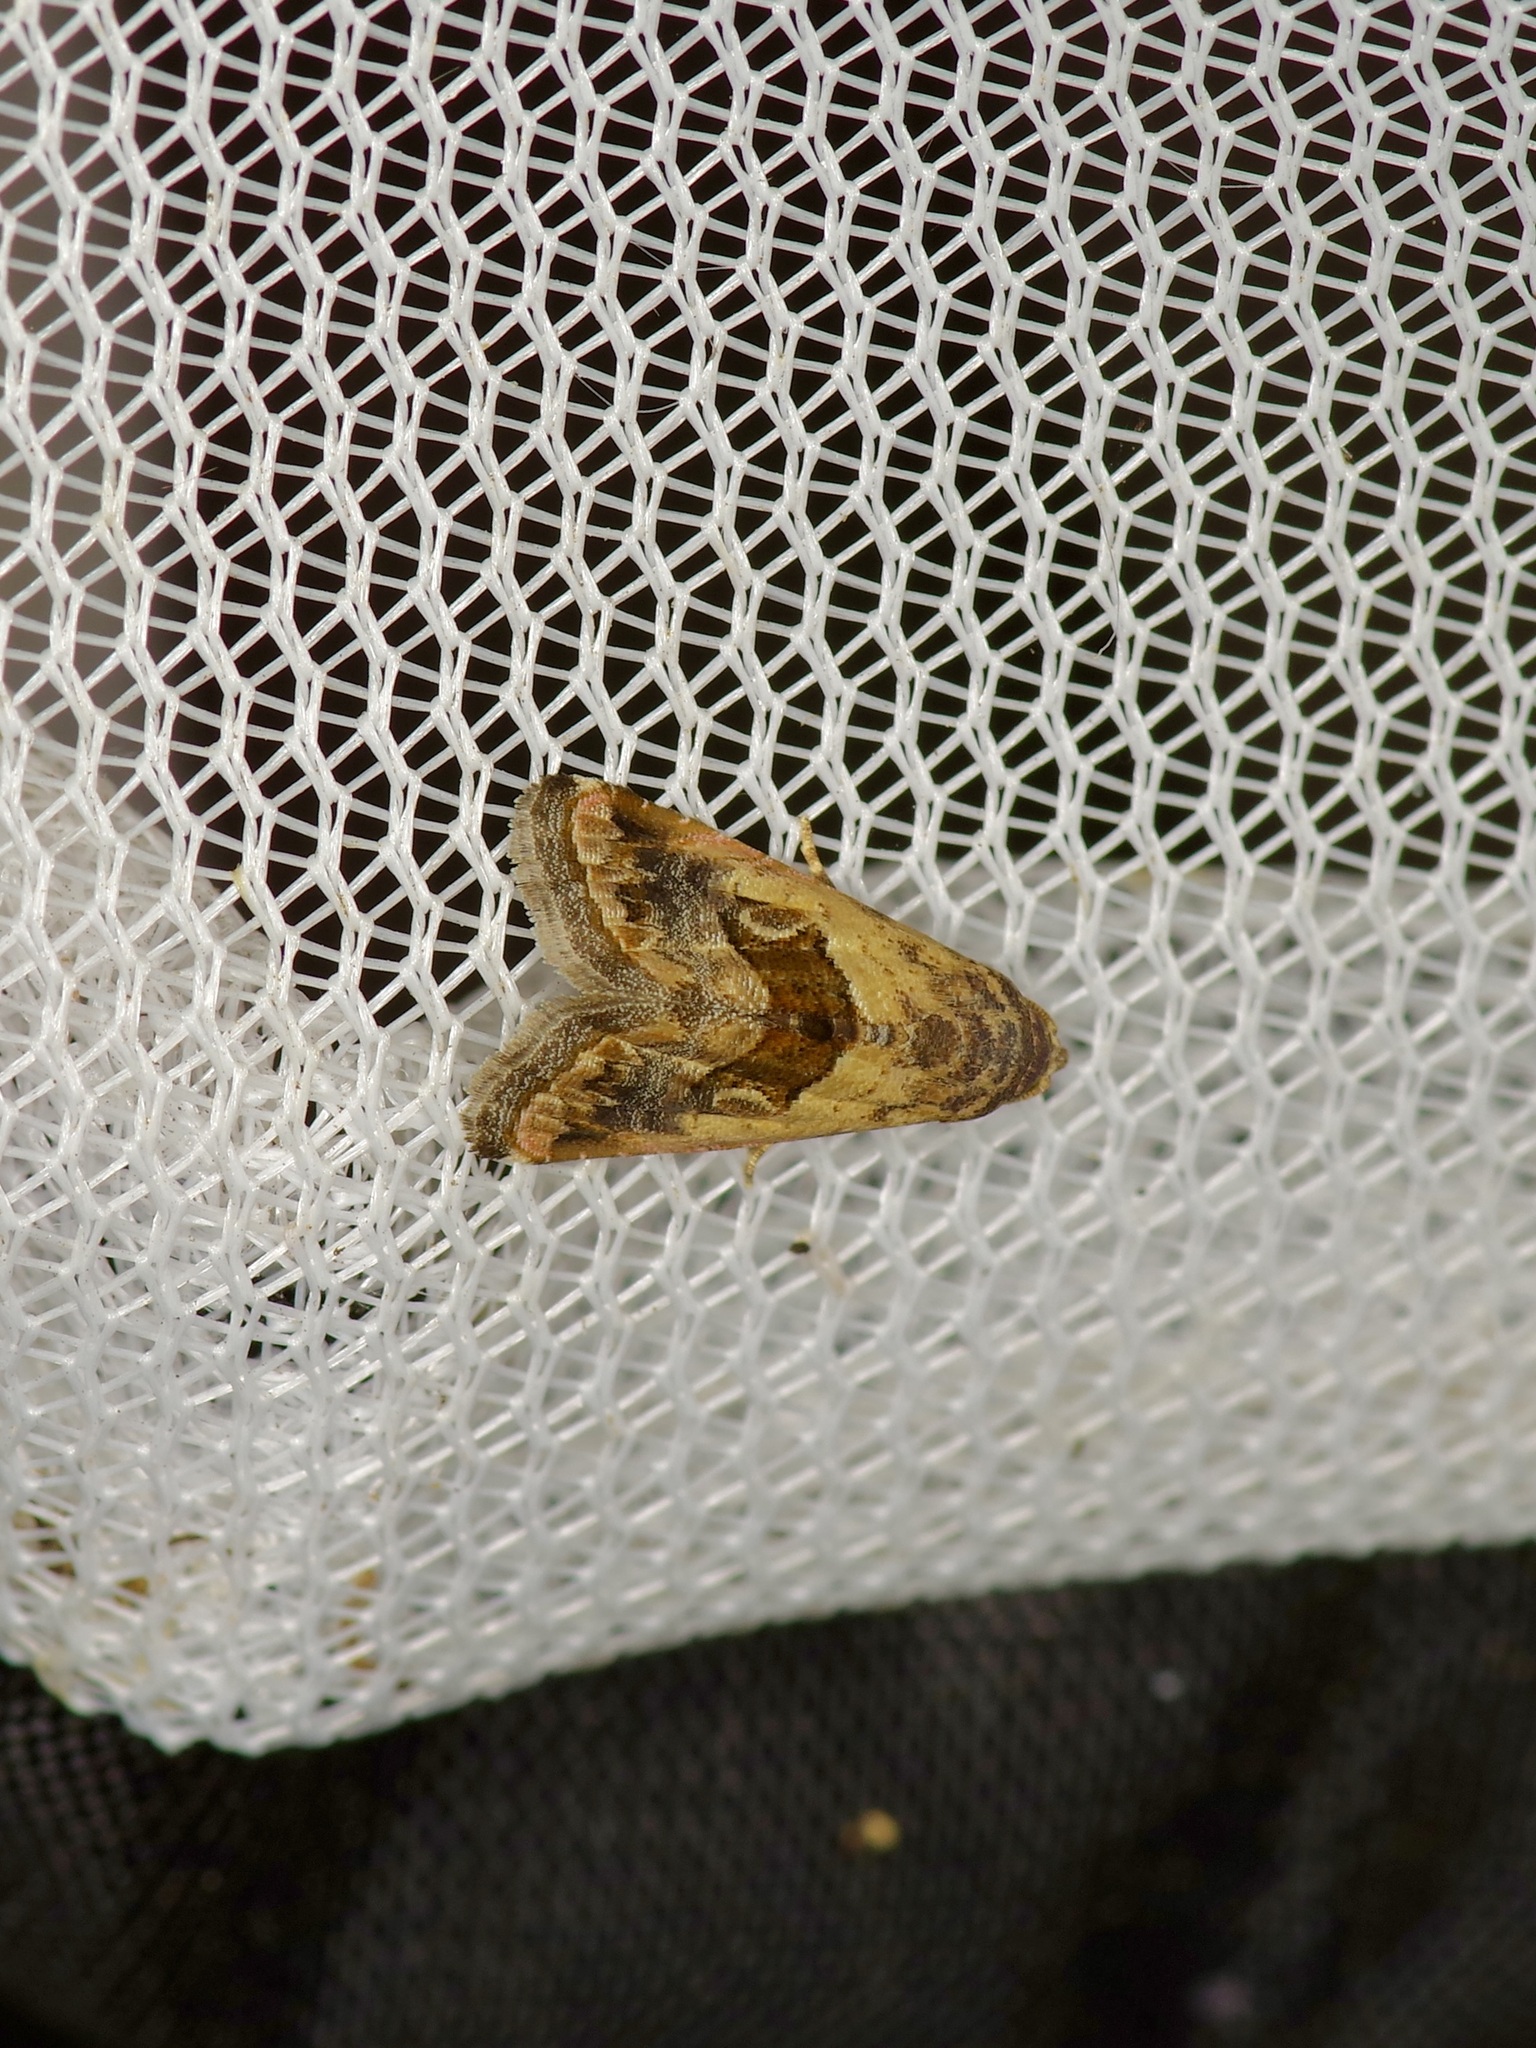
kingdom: Animalia
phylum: Arthropoda
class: Insecta
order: Lepidoptera
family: Noctuidae
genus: Tripudia
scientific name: Tripudia quadrifera
